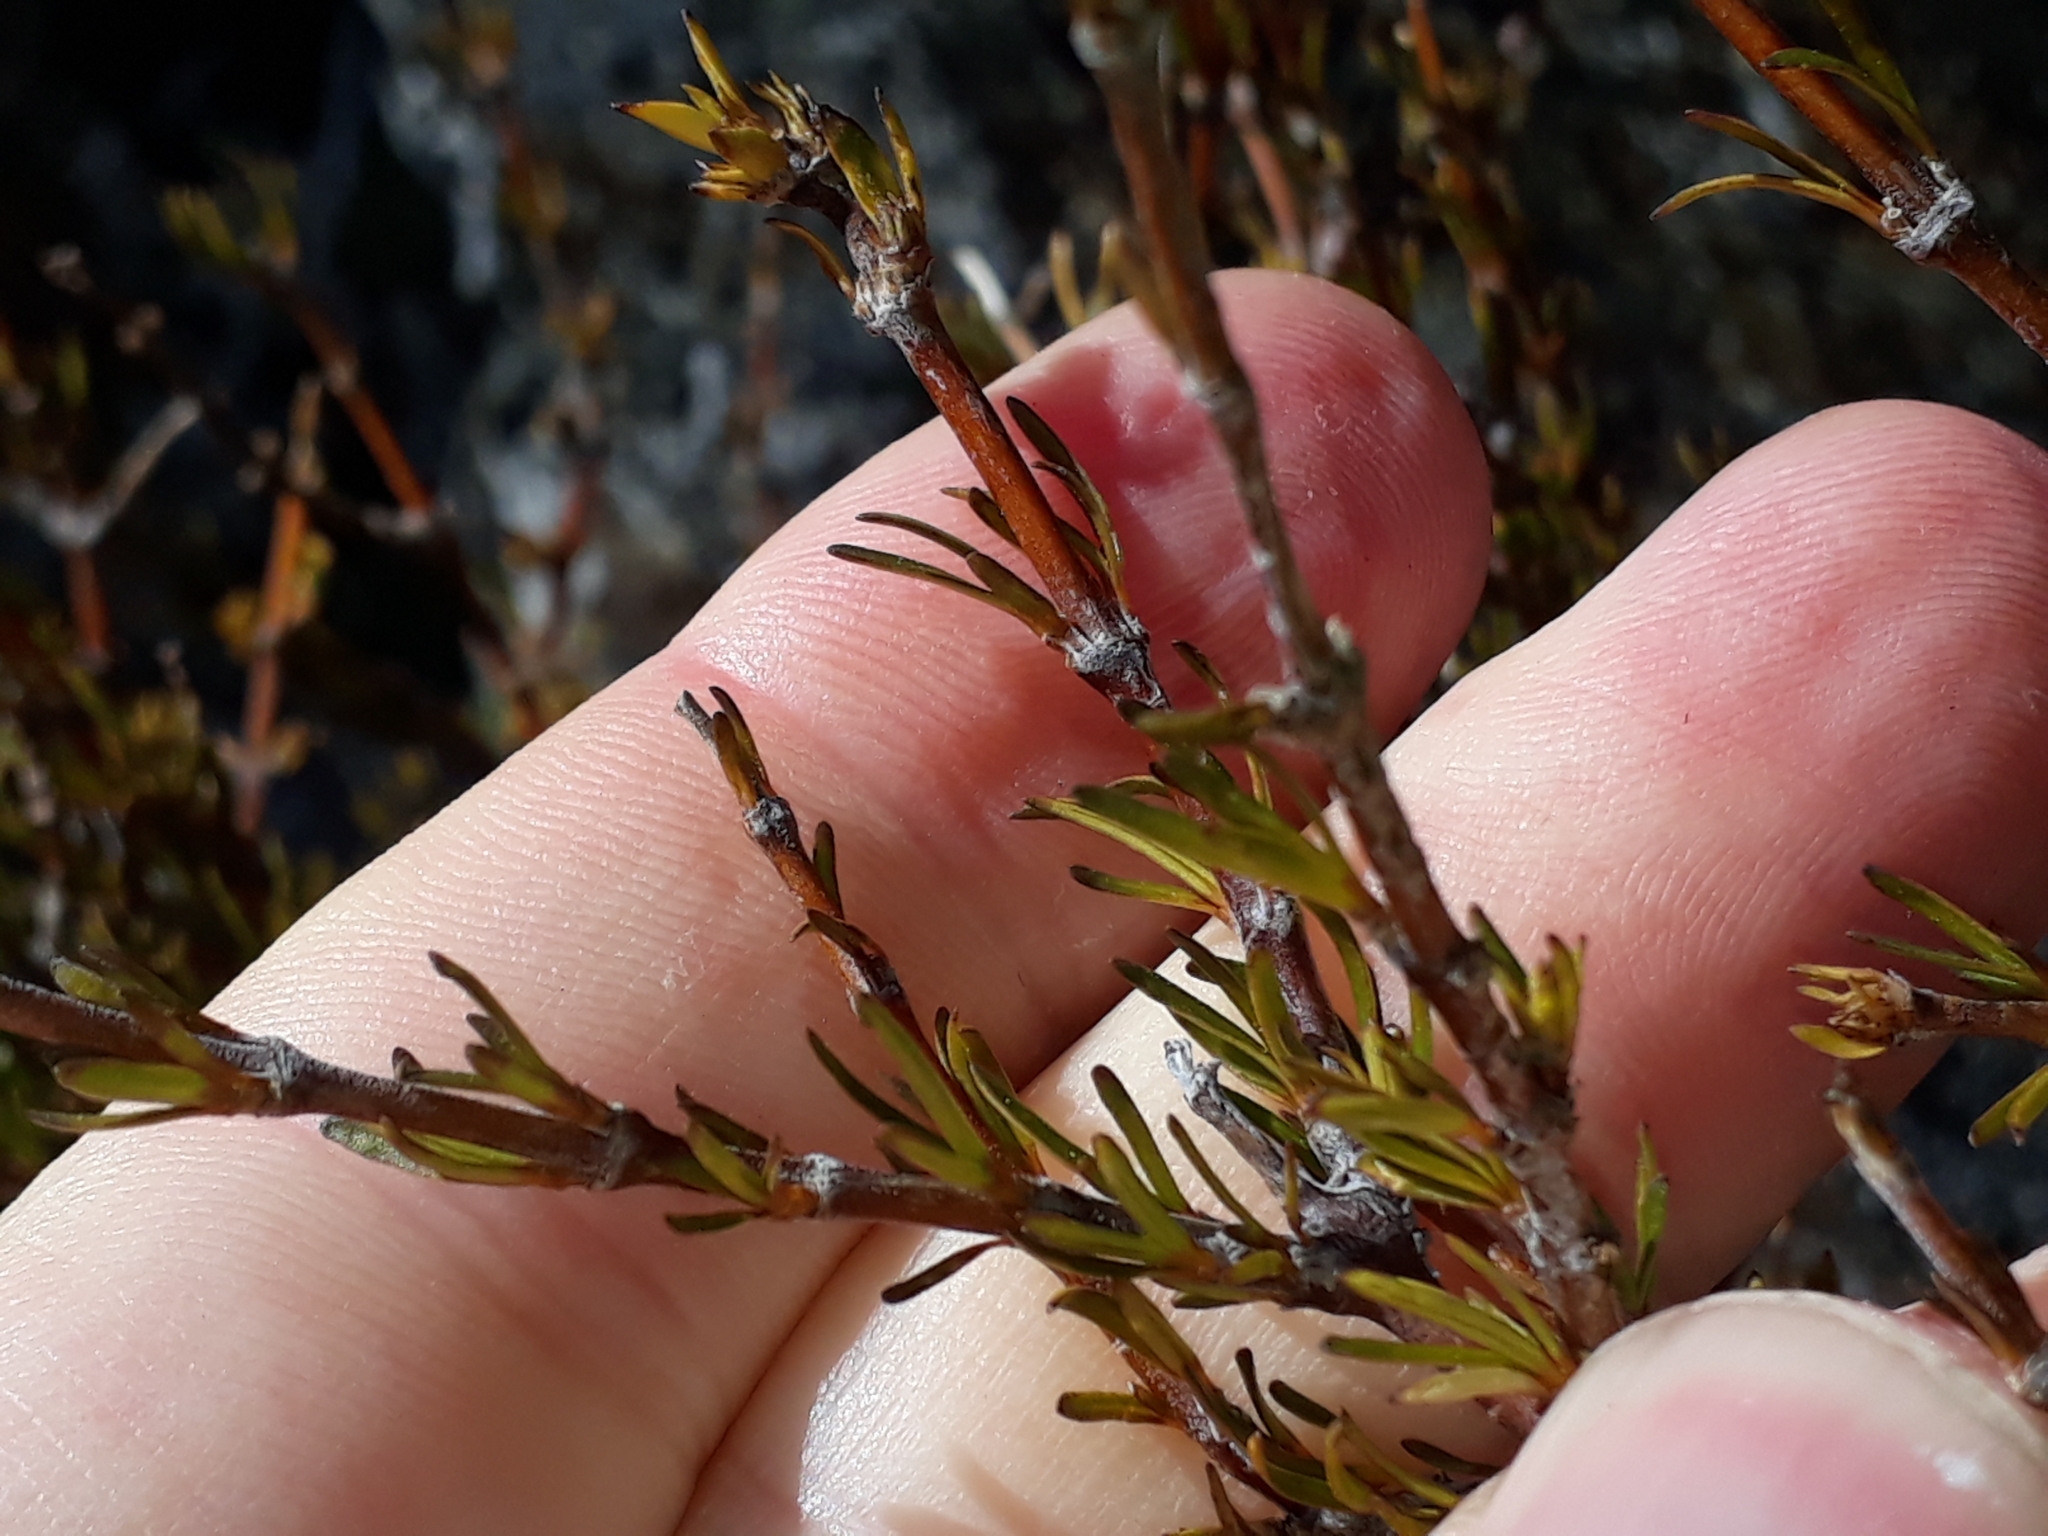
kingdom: Plantae
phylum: Tracheophyta
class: Magnoliopsida
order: Gentianales
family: Rubiaceae
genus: Coprosma
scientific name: Coprosma rugosa
